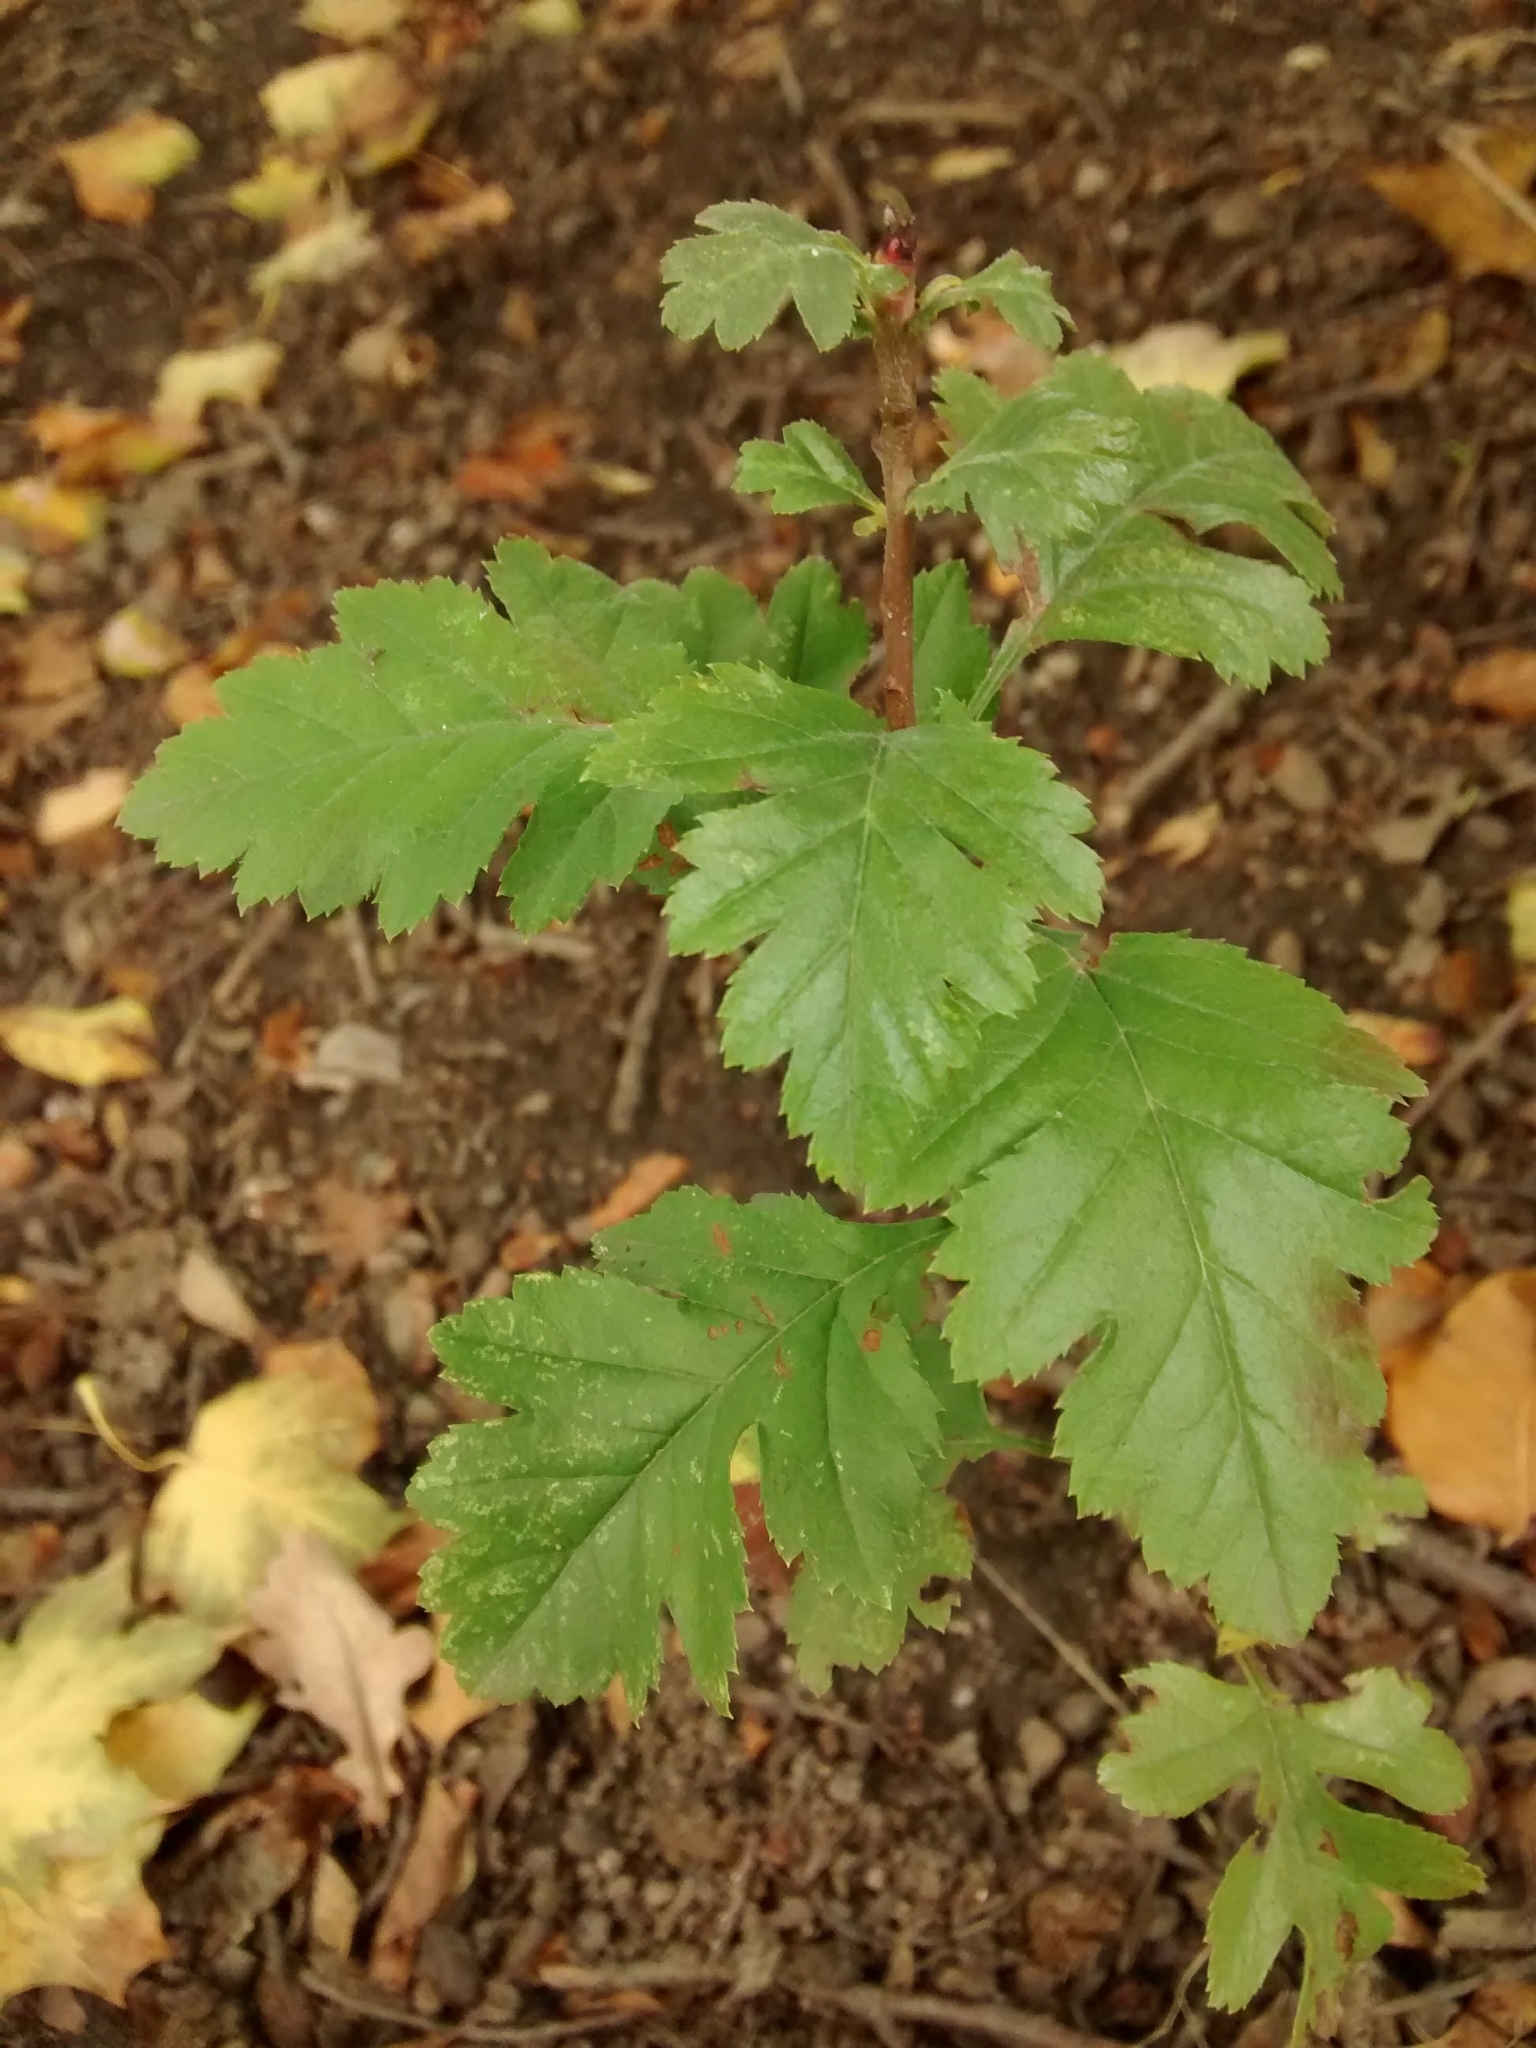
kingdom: Plantae
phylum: Tracheophyta
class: Magnoliopsida
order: Rosales
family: Rosaceae
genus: Crataegus
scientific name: Crataegus monogyna
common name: Hawthorn
